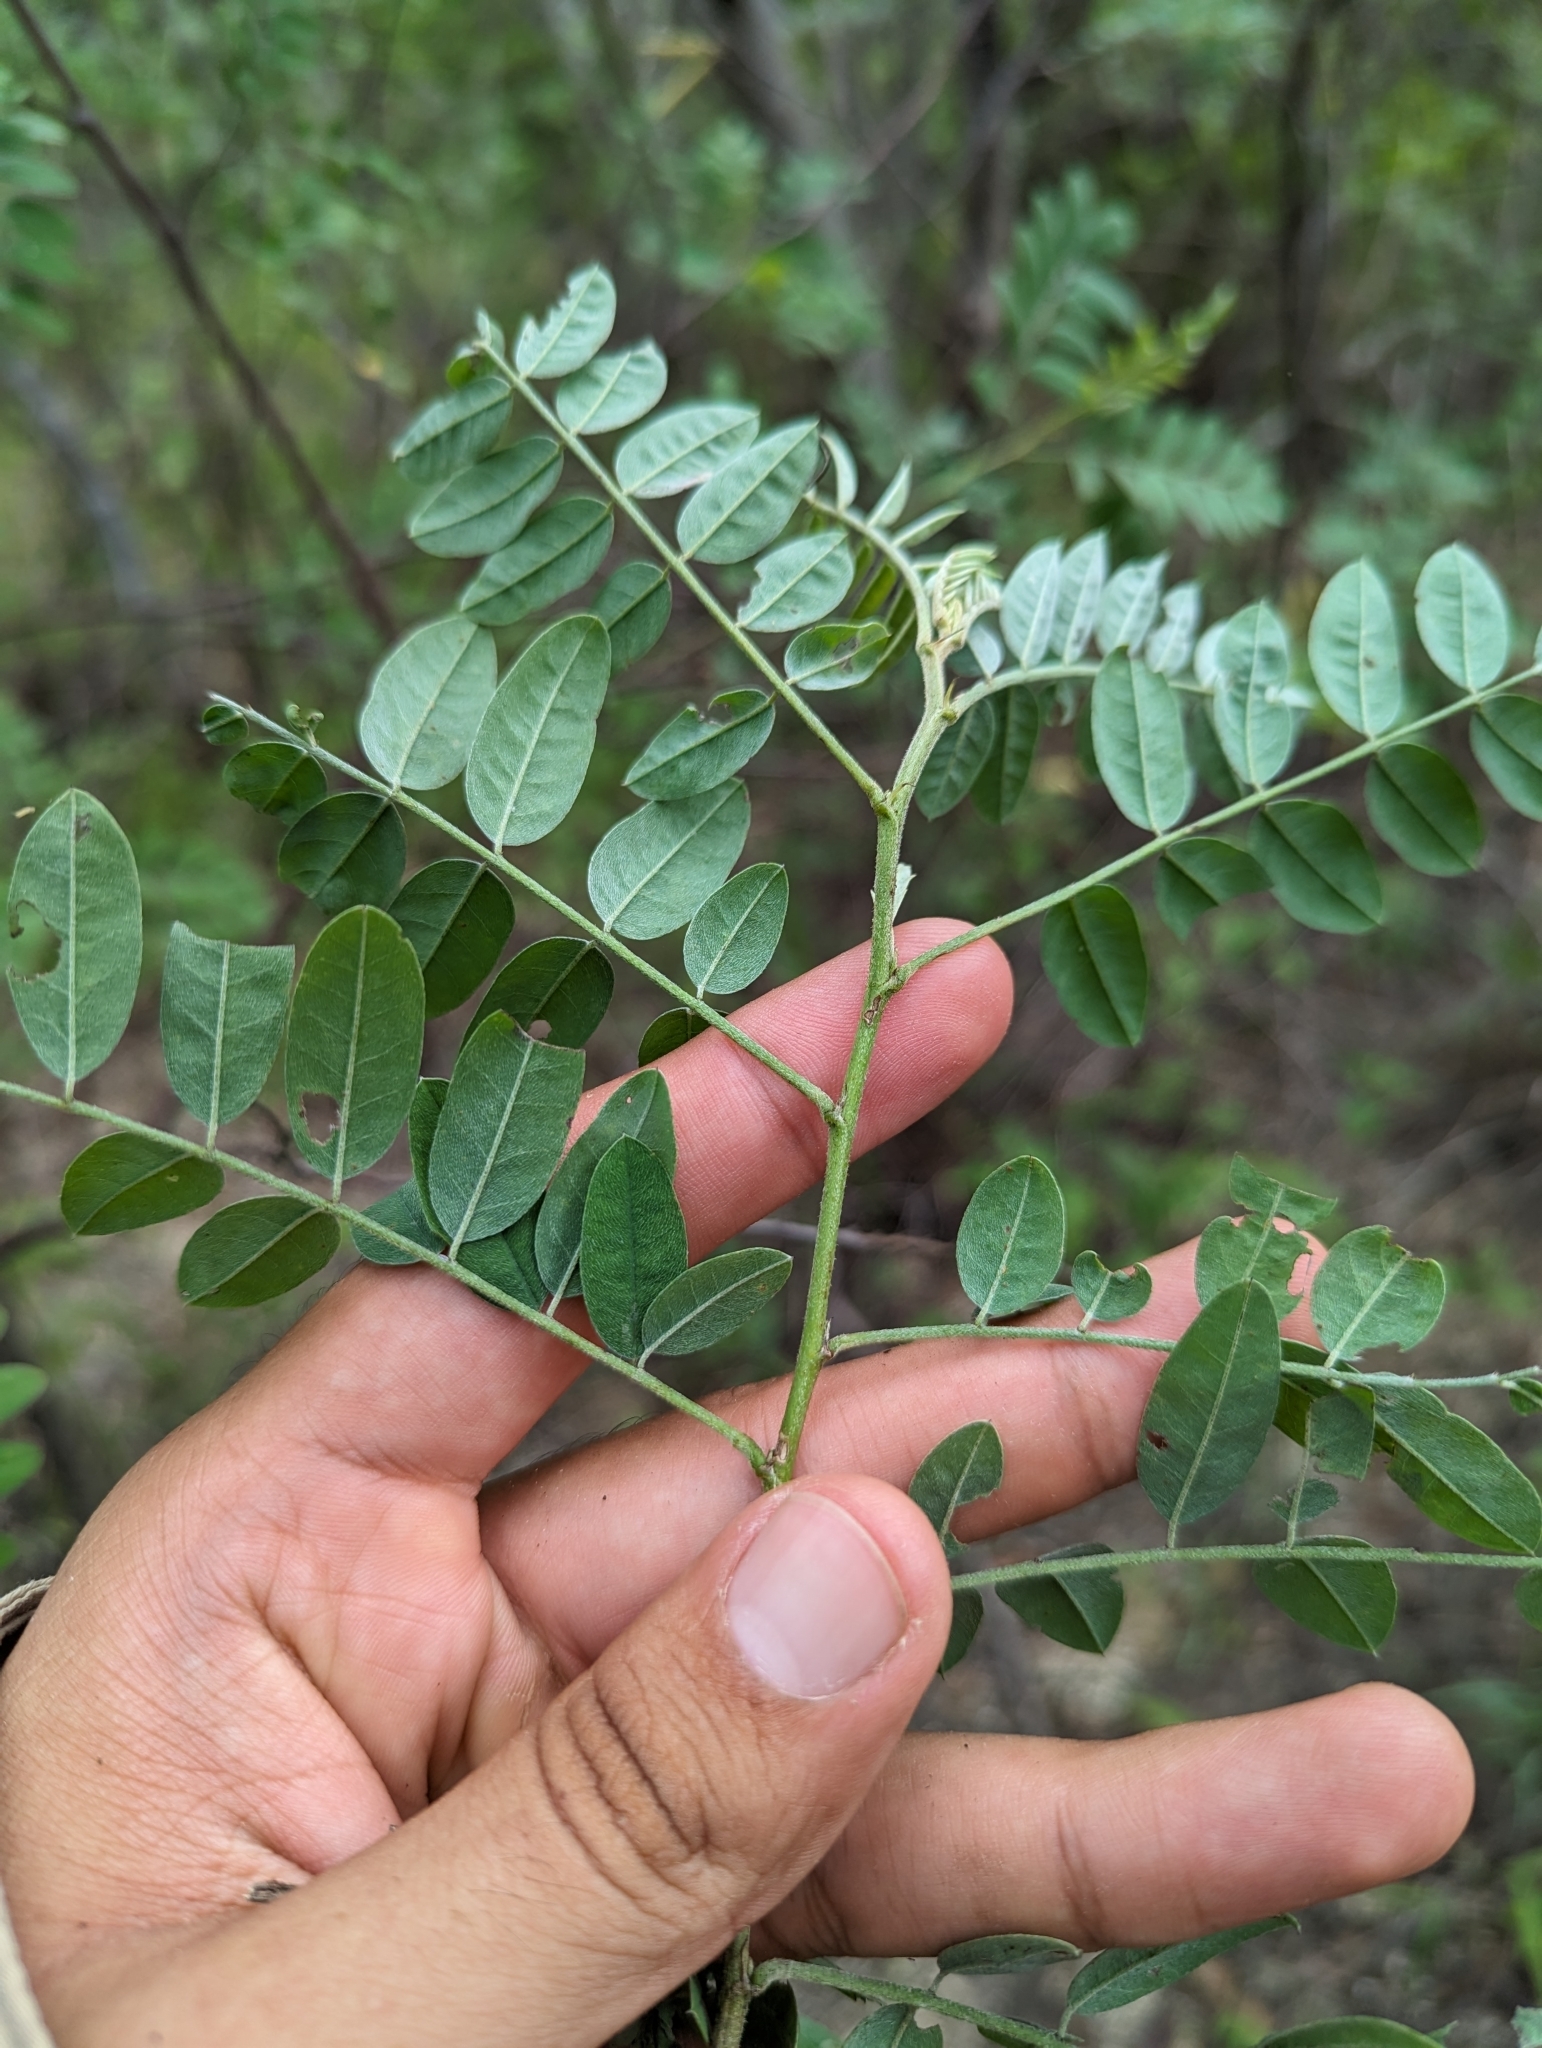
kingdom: Plantae
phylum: Tracheophyta
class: Magnoliopsida
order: Fabales
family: Fabaceae
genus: Coursetia
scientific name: Coursetia glandulosa
